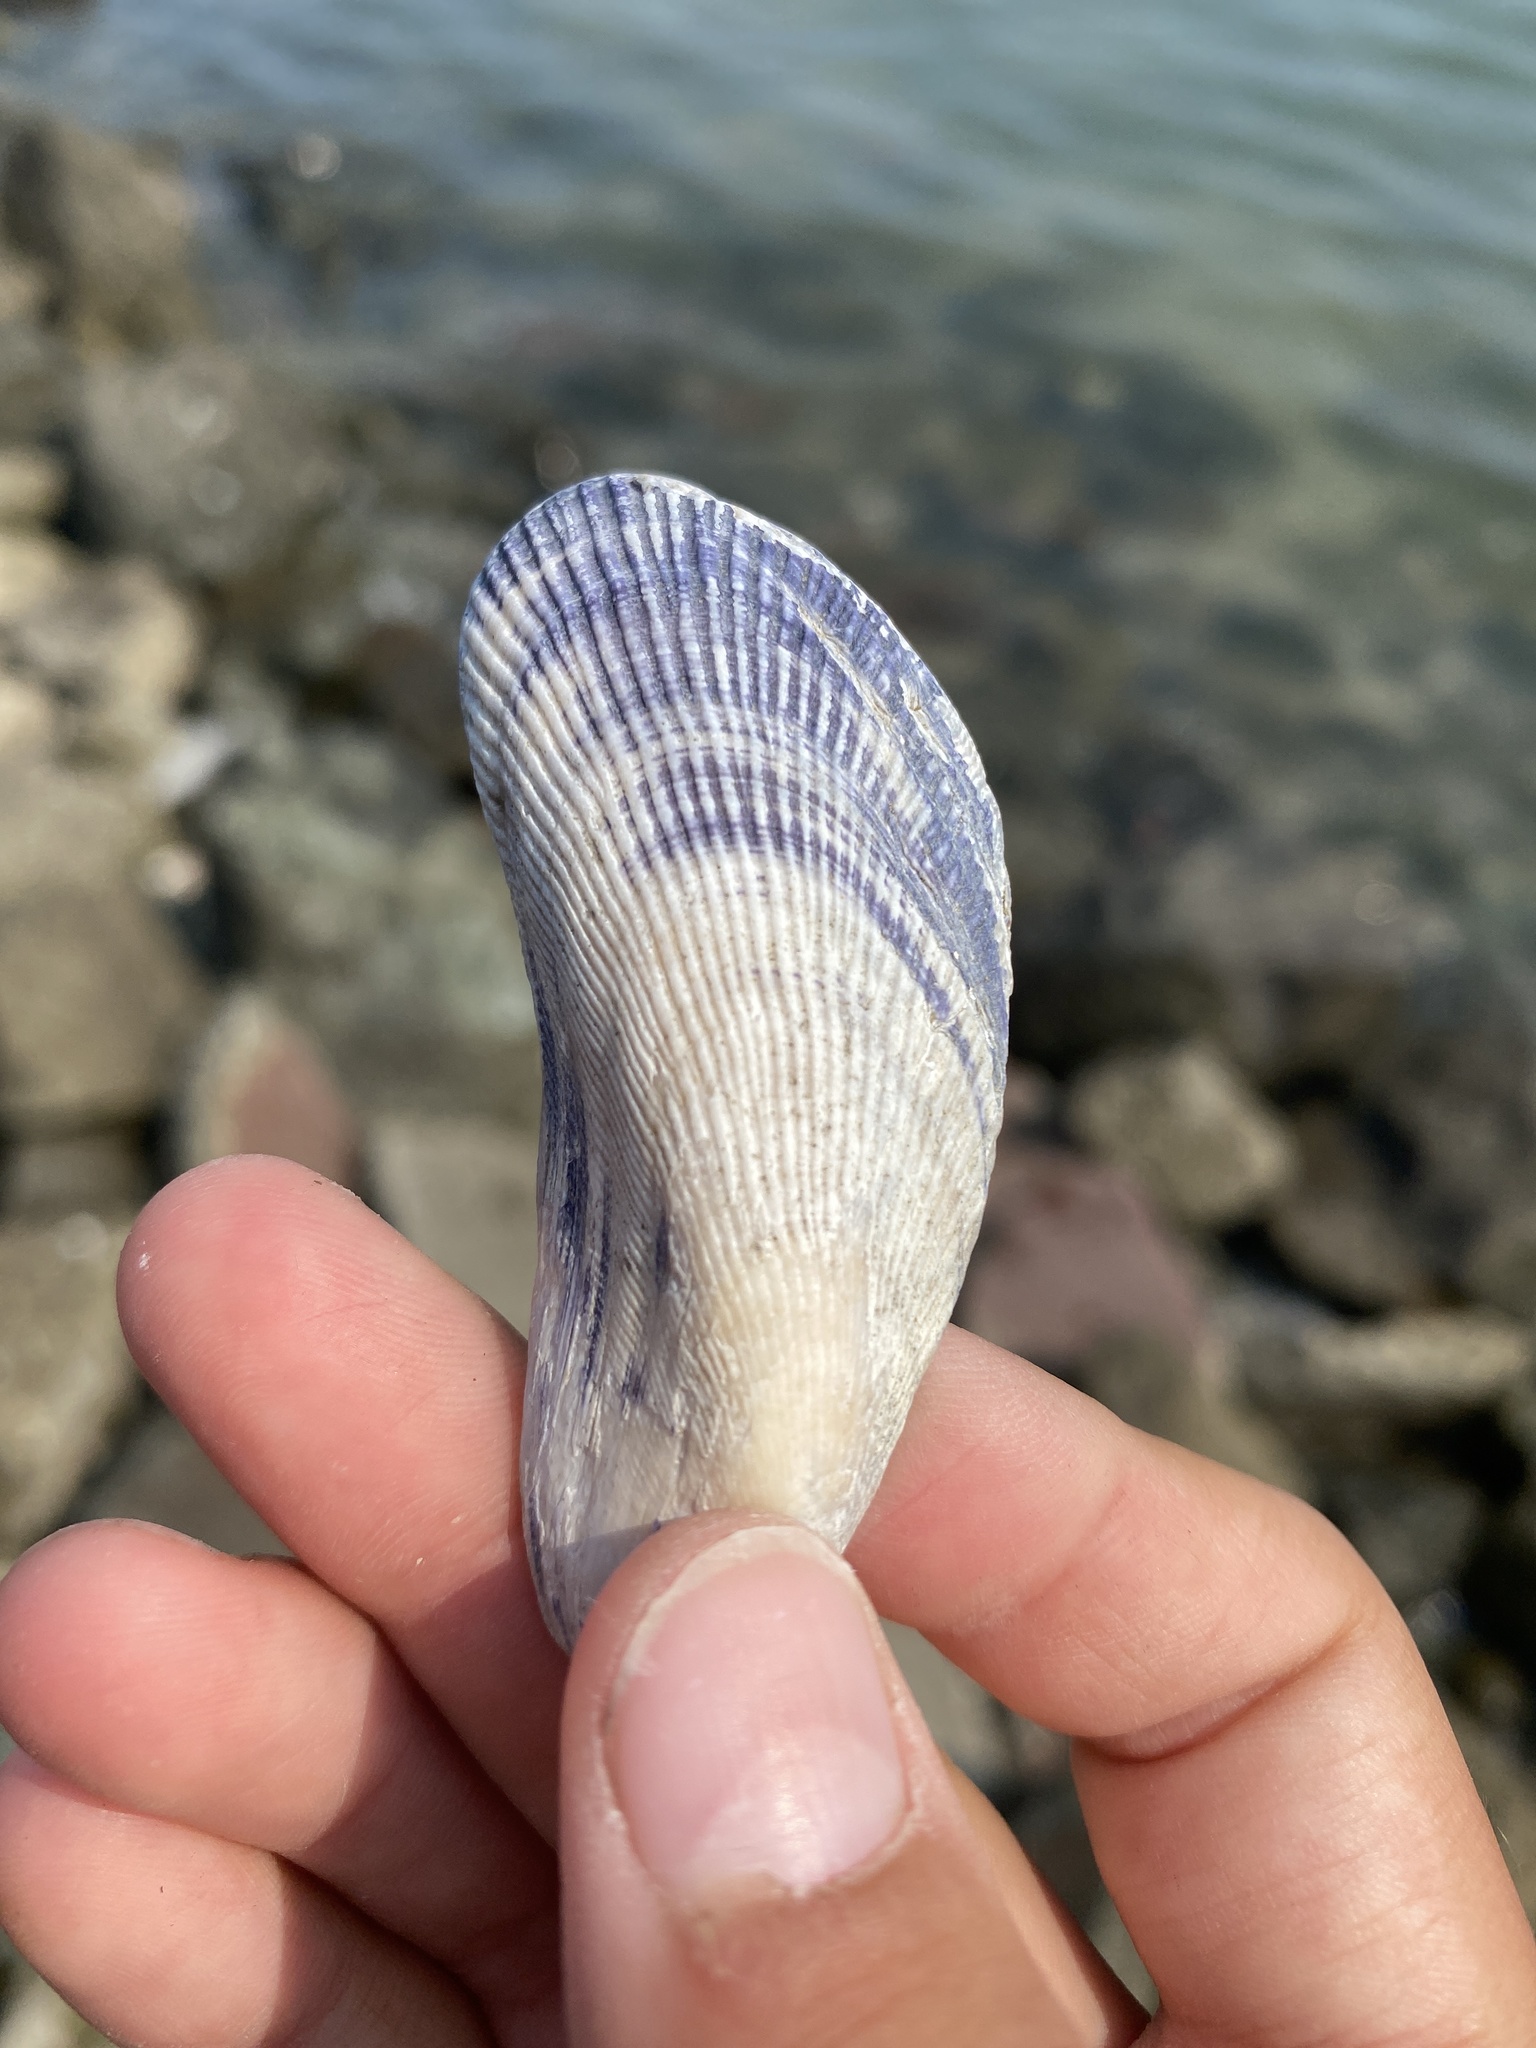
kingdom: Animalia
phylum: Mollusca
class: Bivalvia
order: Mytilida
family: Mytilidae
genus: Geukensia
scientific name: Geukensia demissa
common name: Ribbed mussel
